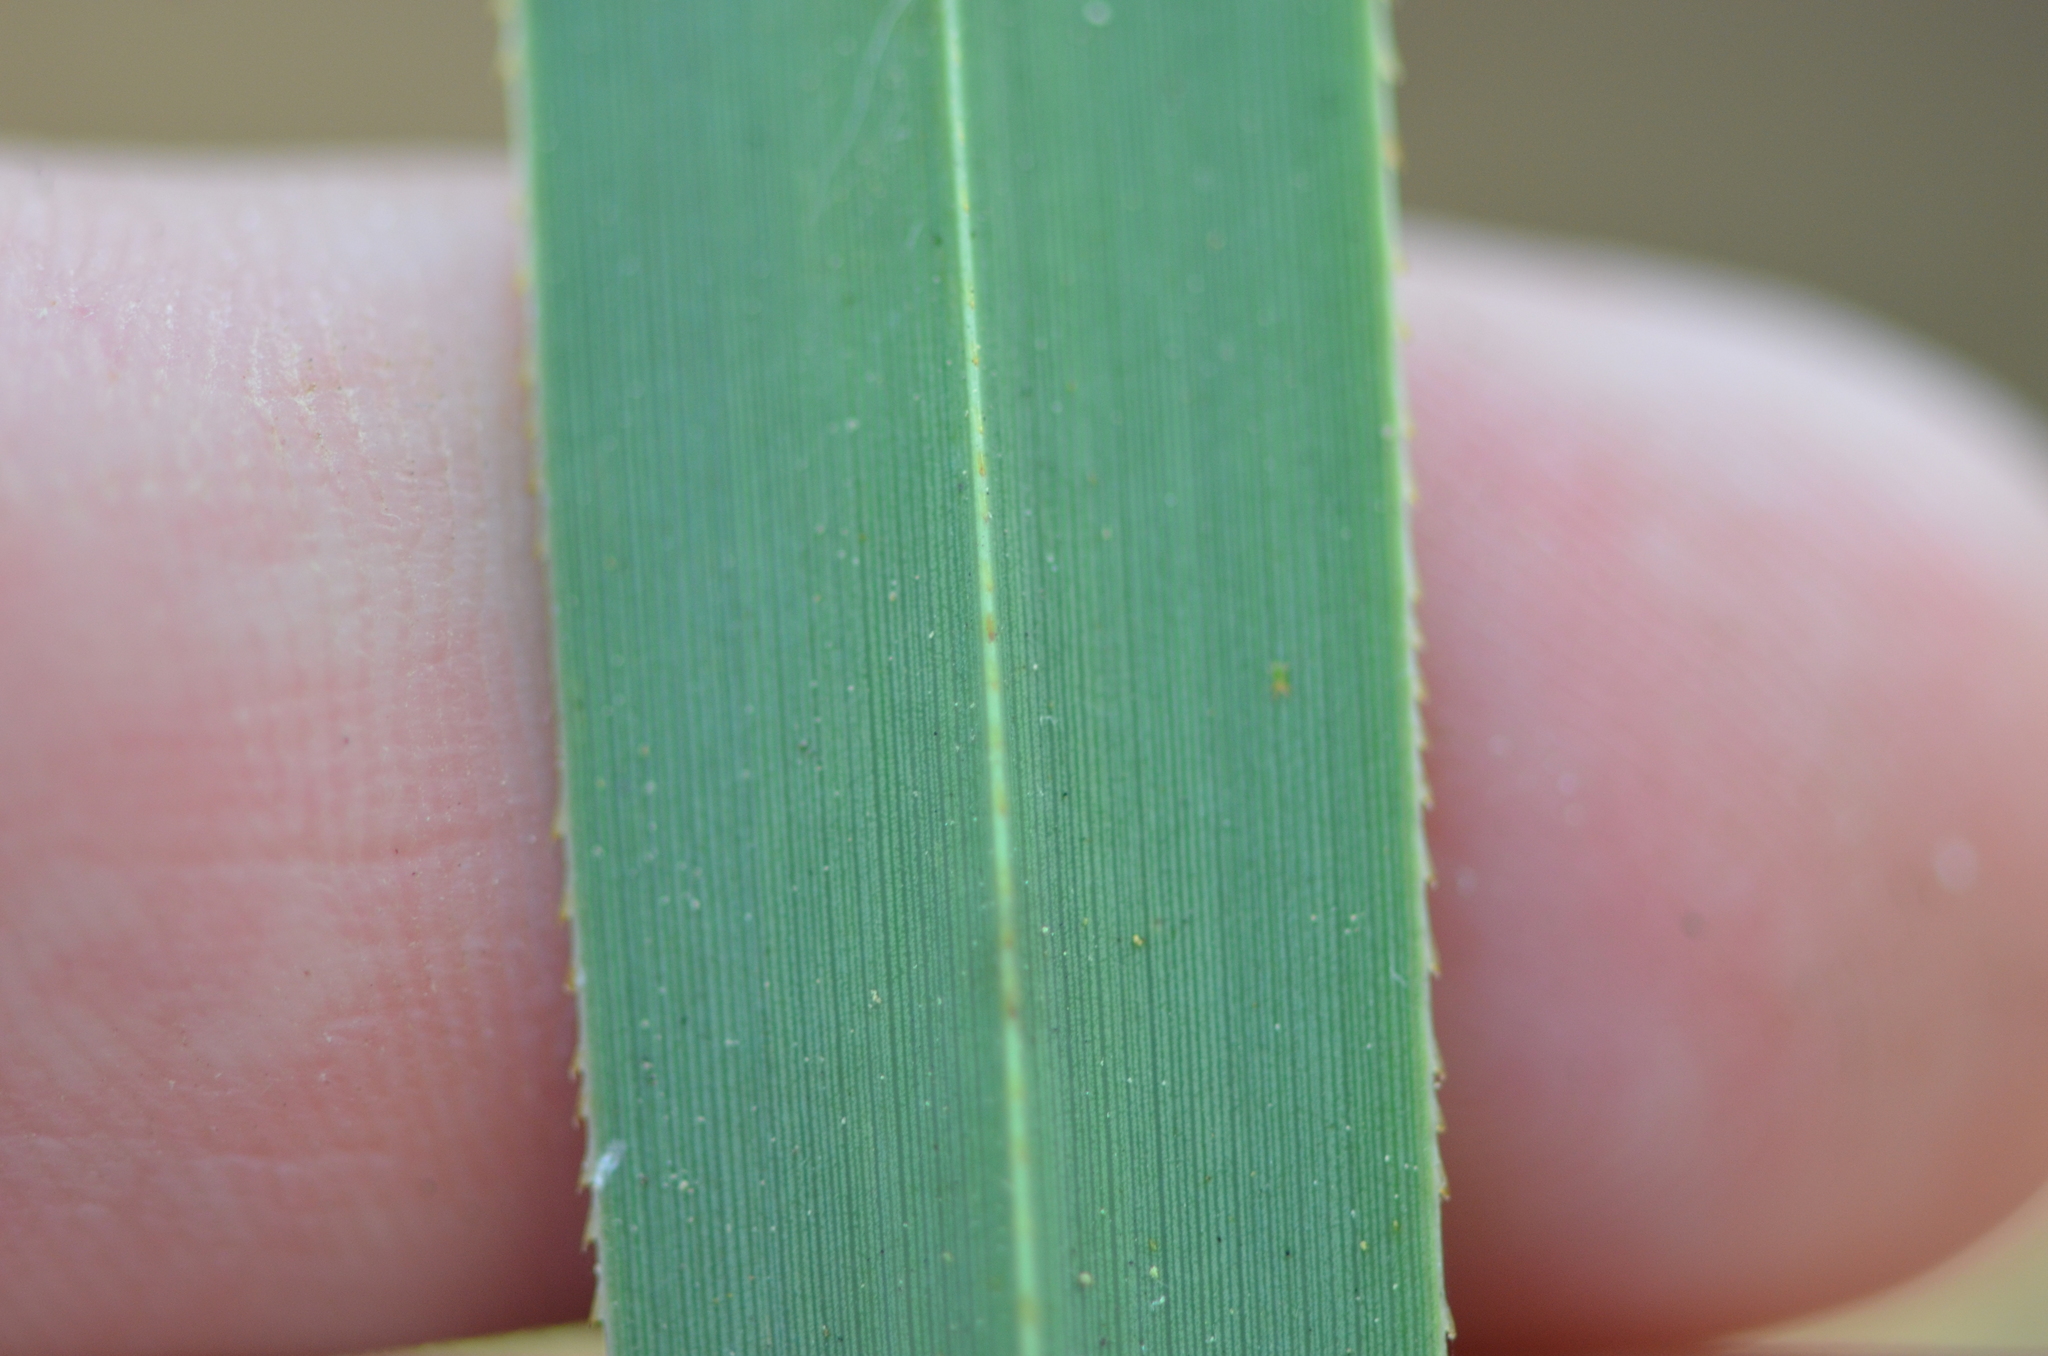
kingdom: Plantae
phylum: Tracheophyta
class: Liliopsida
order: Poales
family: Cyperaceae
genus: Cladium
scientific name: Cladium mariscus
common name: Great fen-sedge
